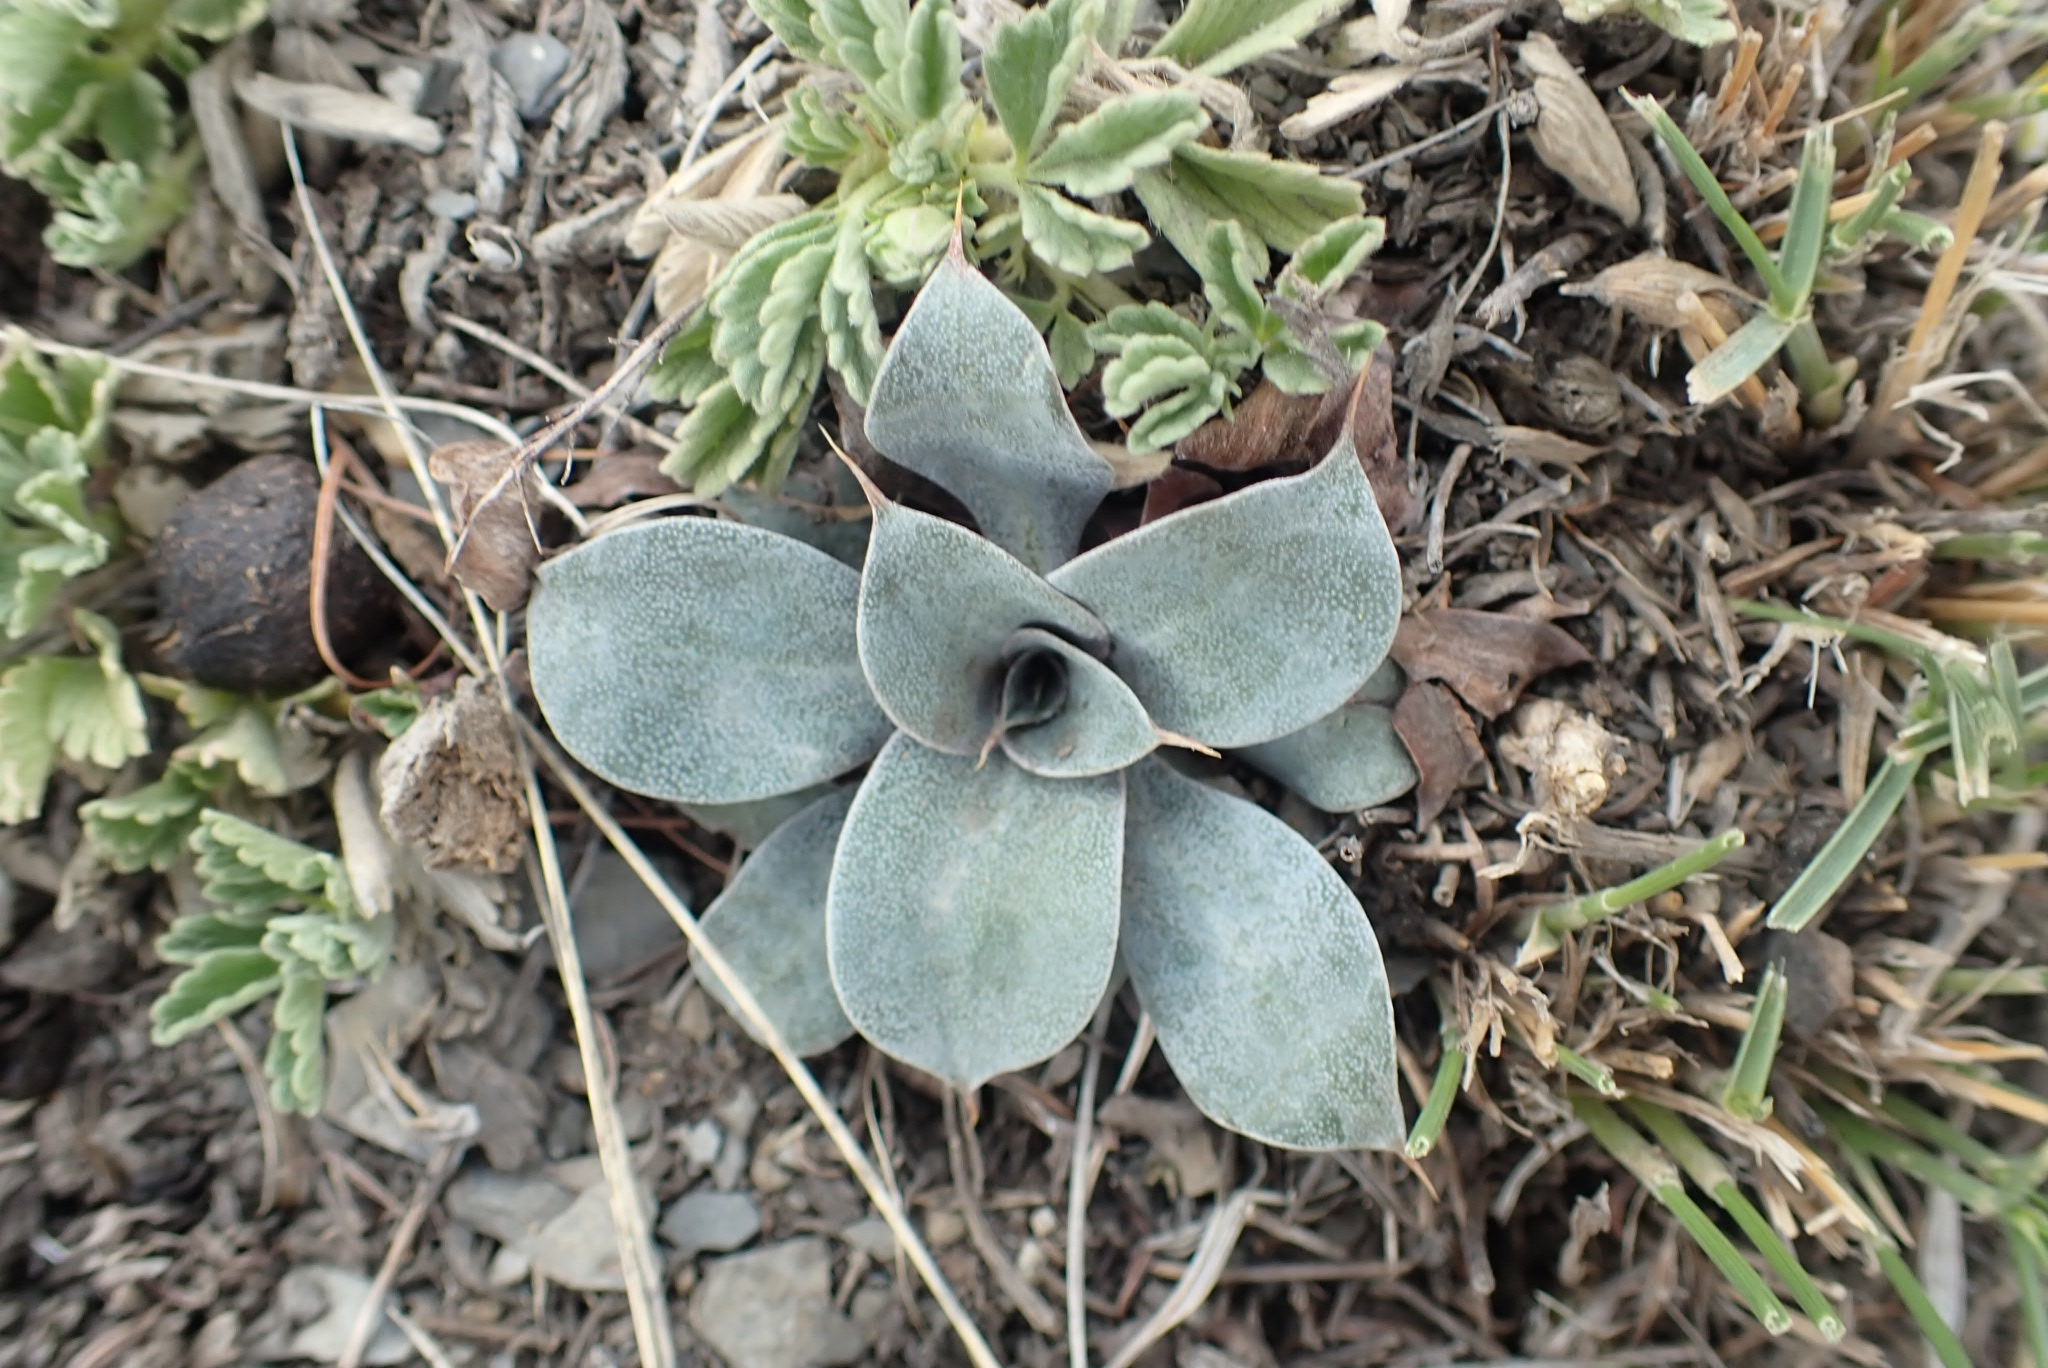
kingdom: Plantae
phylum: Tracheophyta
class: Magnoliopsida
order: Caryophyllales
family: Plumbaginaceae
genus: Goniolimon
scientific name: Goniolimon speciosum
